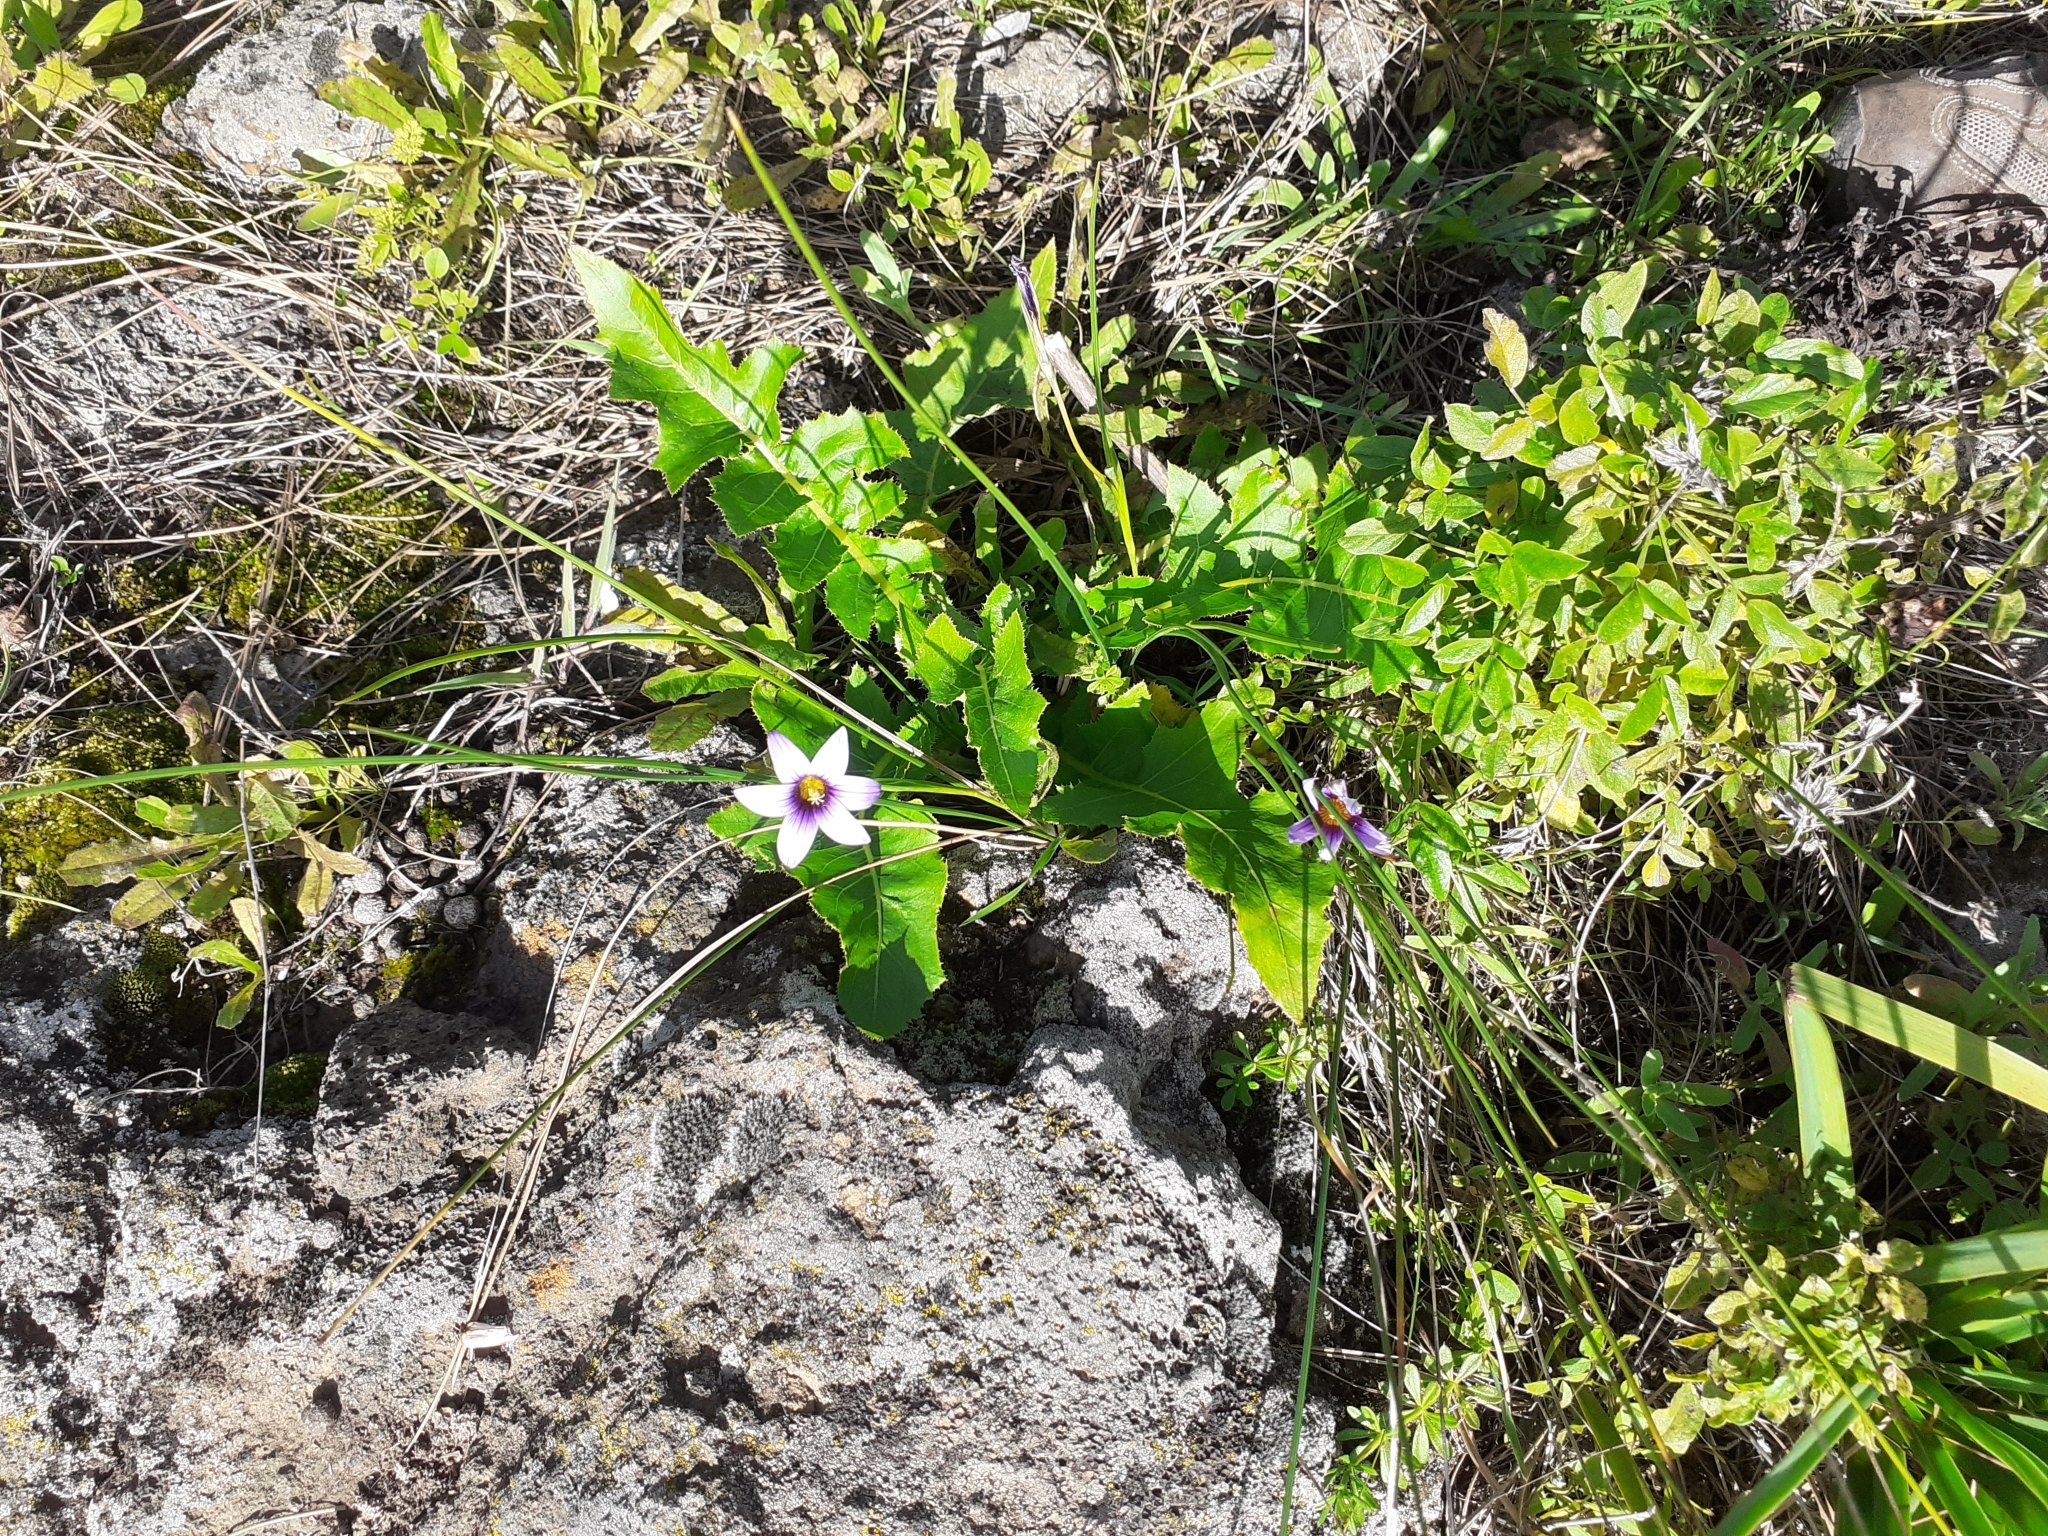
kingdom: Plantae
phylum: Tracheophyta
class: Liliopsida
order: Asparagales
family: Iridaceae
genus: Romulea
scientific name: Romulea columnae
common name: Sand-crocus
